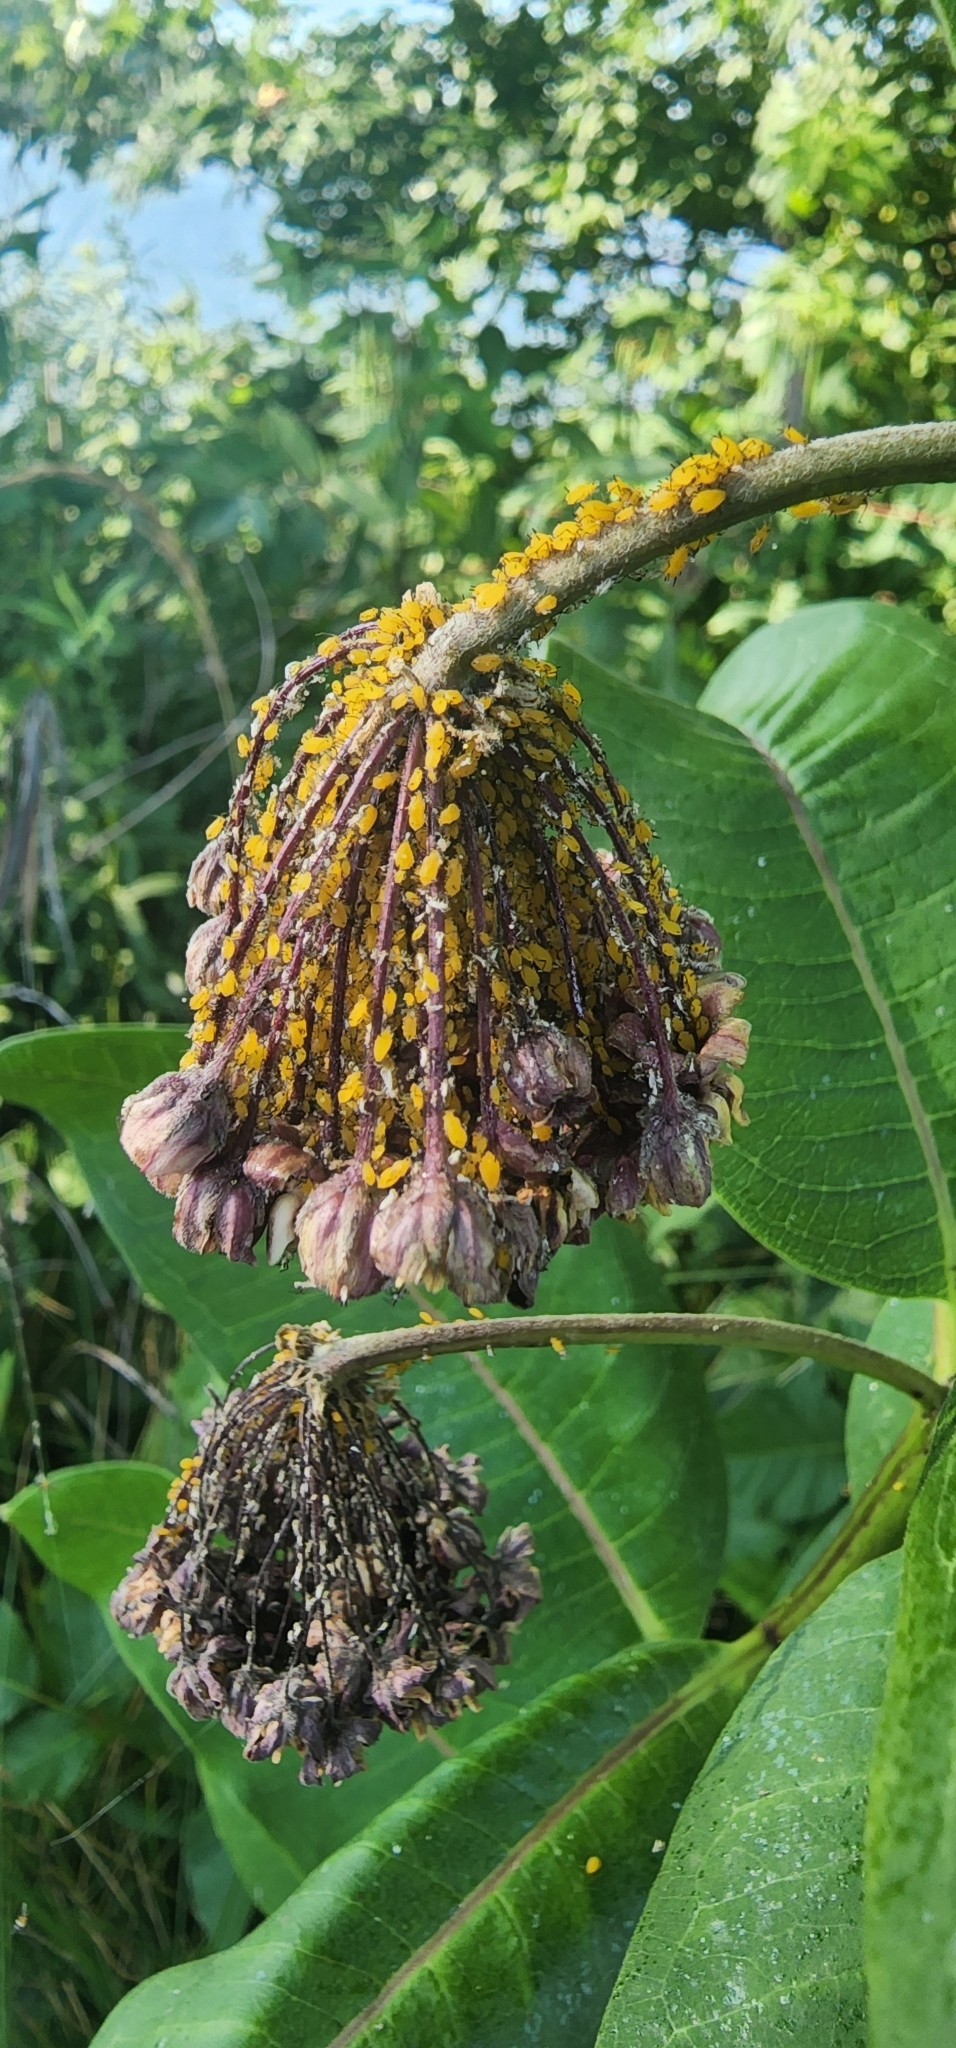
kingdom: Animalia
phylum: Arthropoda
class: Insecta
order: Hemiptera
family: Aphididae
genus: Aphis
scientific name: Aphis nerii
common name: Oleander aphid
